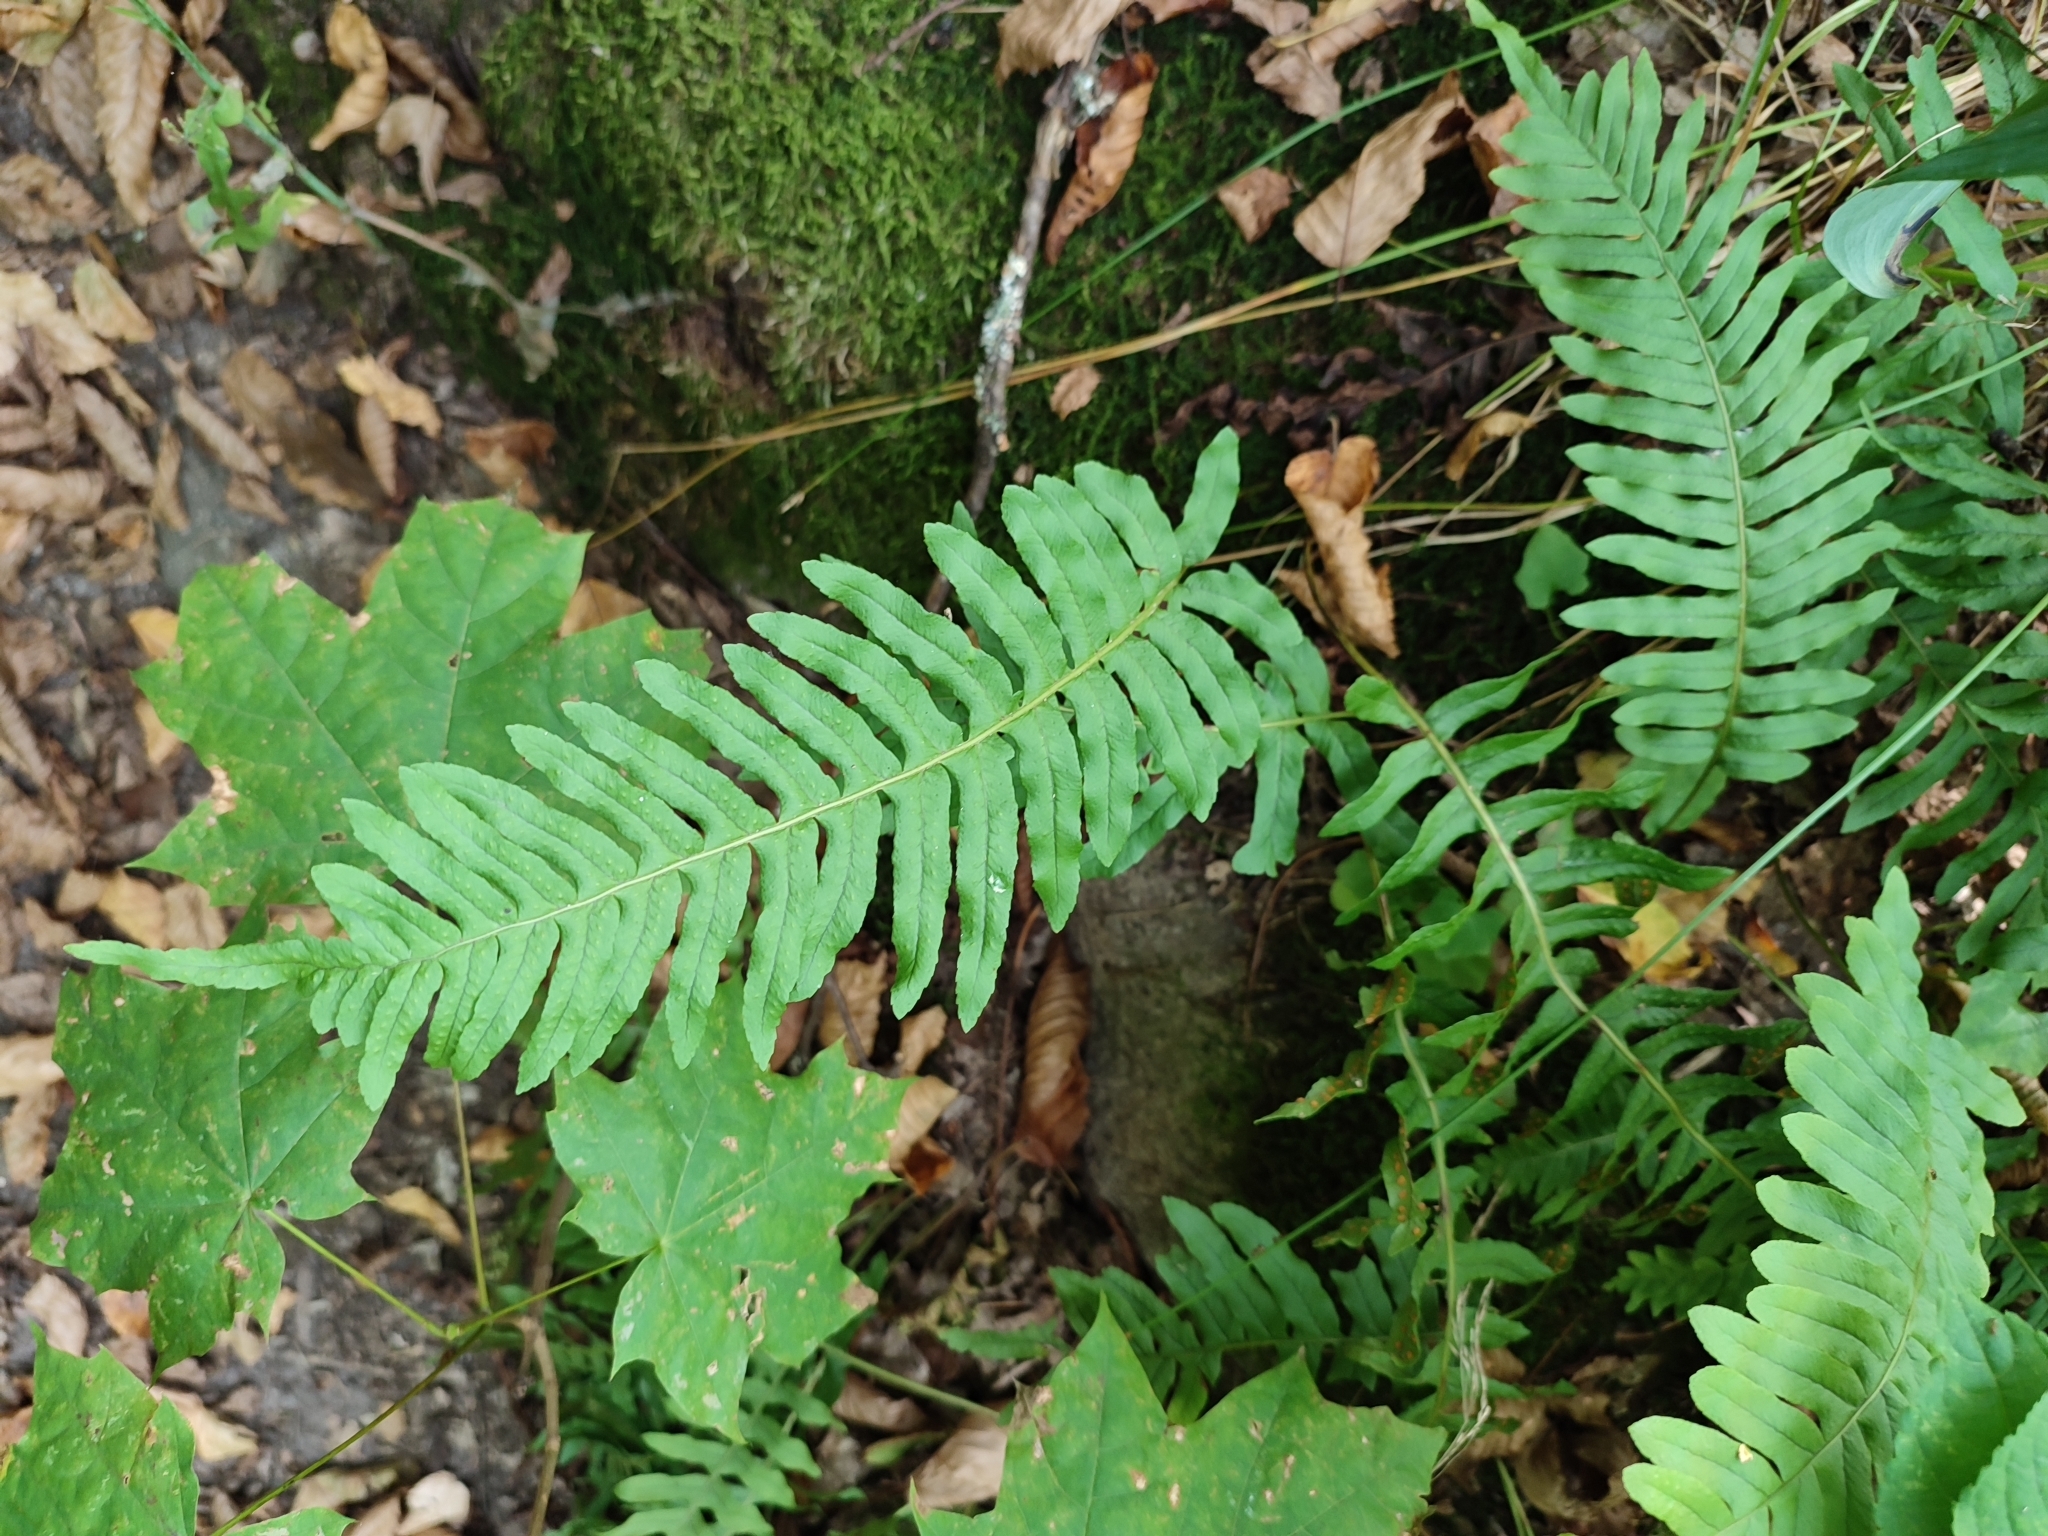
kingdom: Plantae
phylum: Tracheophyta
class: Polypodiopsida
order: Polypodiales
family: Polypodiaceae
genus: Polypodium
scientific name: Polypodium vulgare
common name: Common polypody
